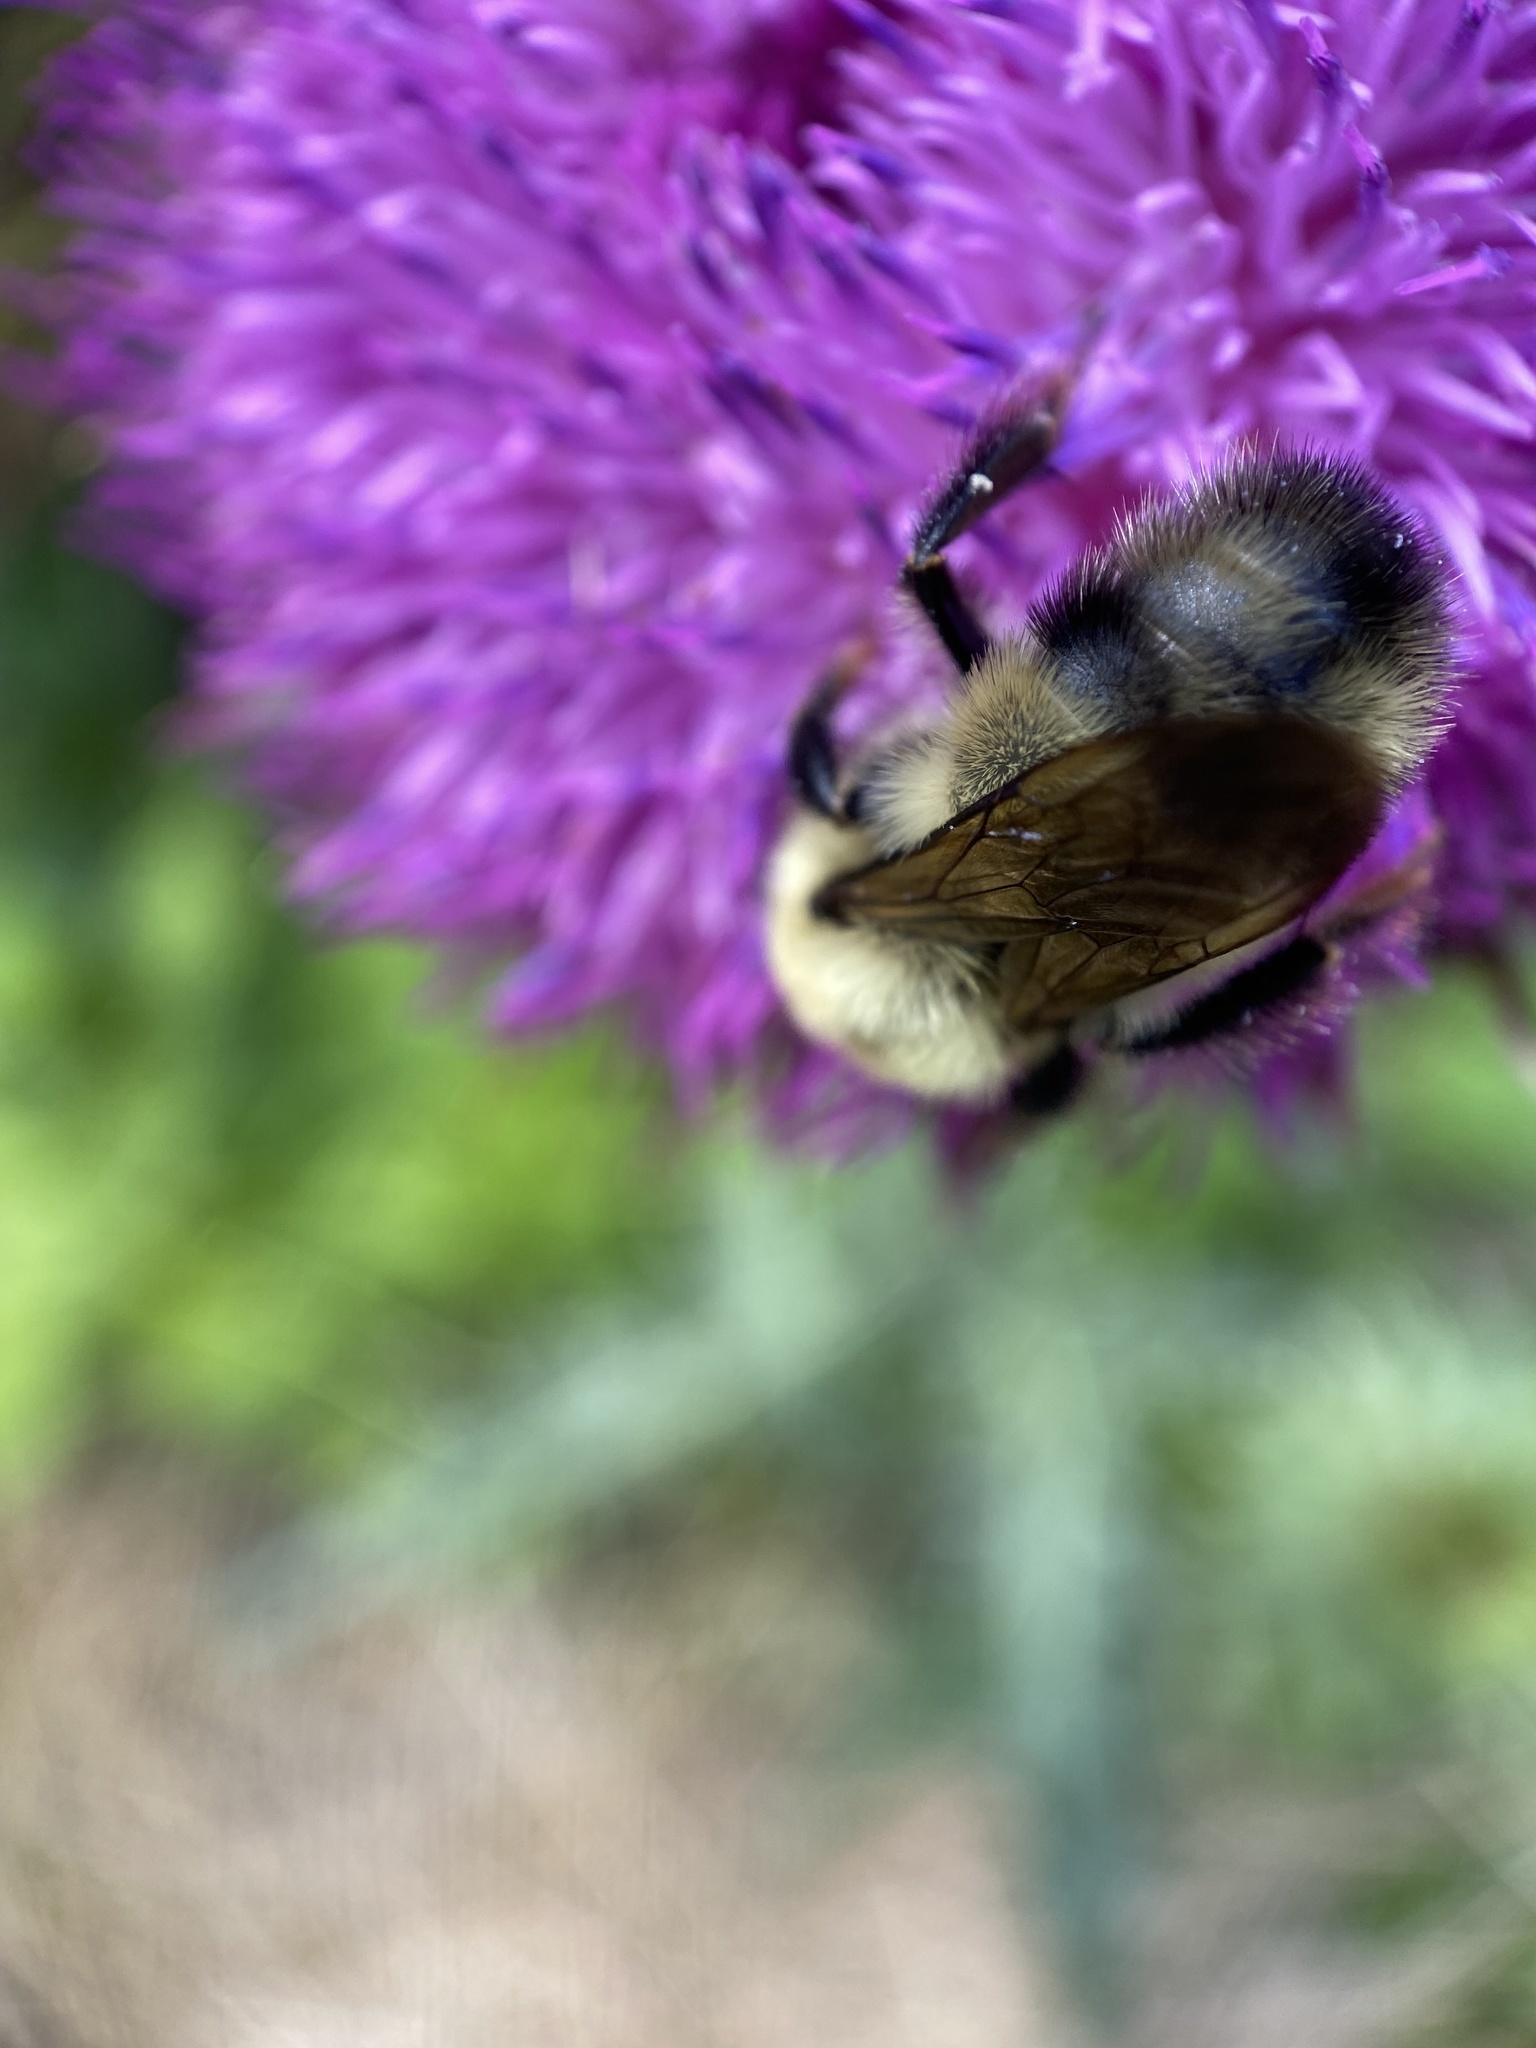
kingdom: Animalia
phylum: Arthropoda
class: Insecta
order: Hymenoptera
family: Apidae
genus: Bombus
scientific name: Bombus bimaculatus
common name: Two-spotted bumble bee
